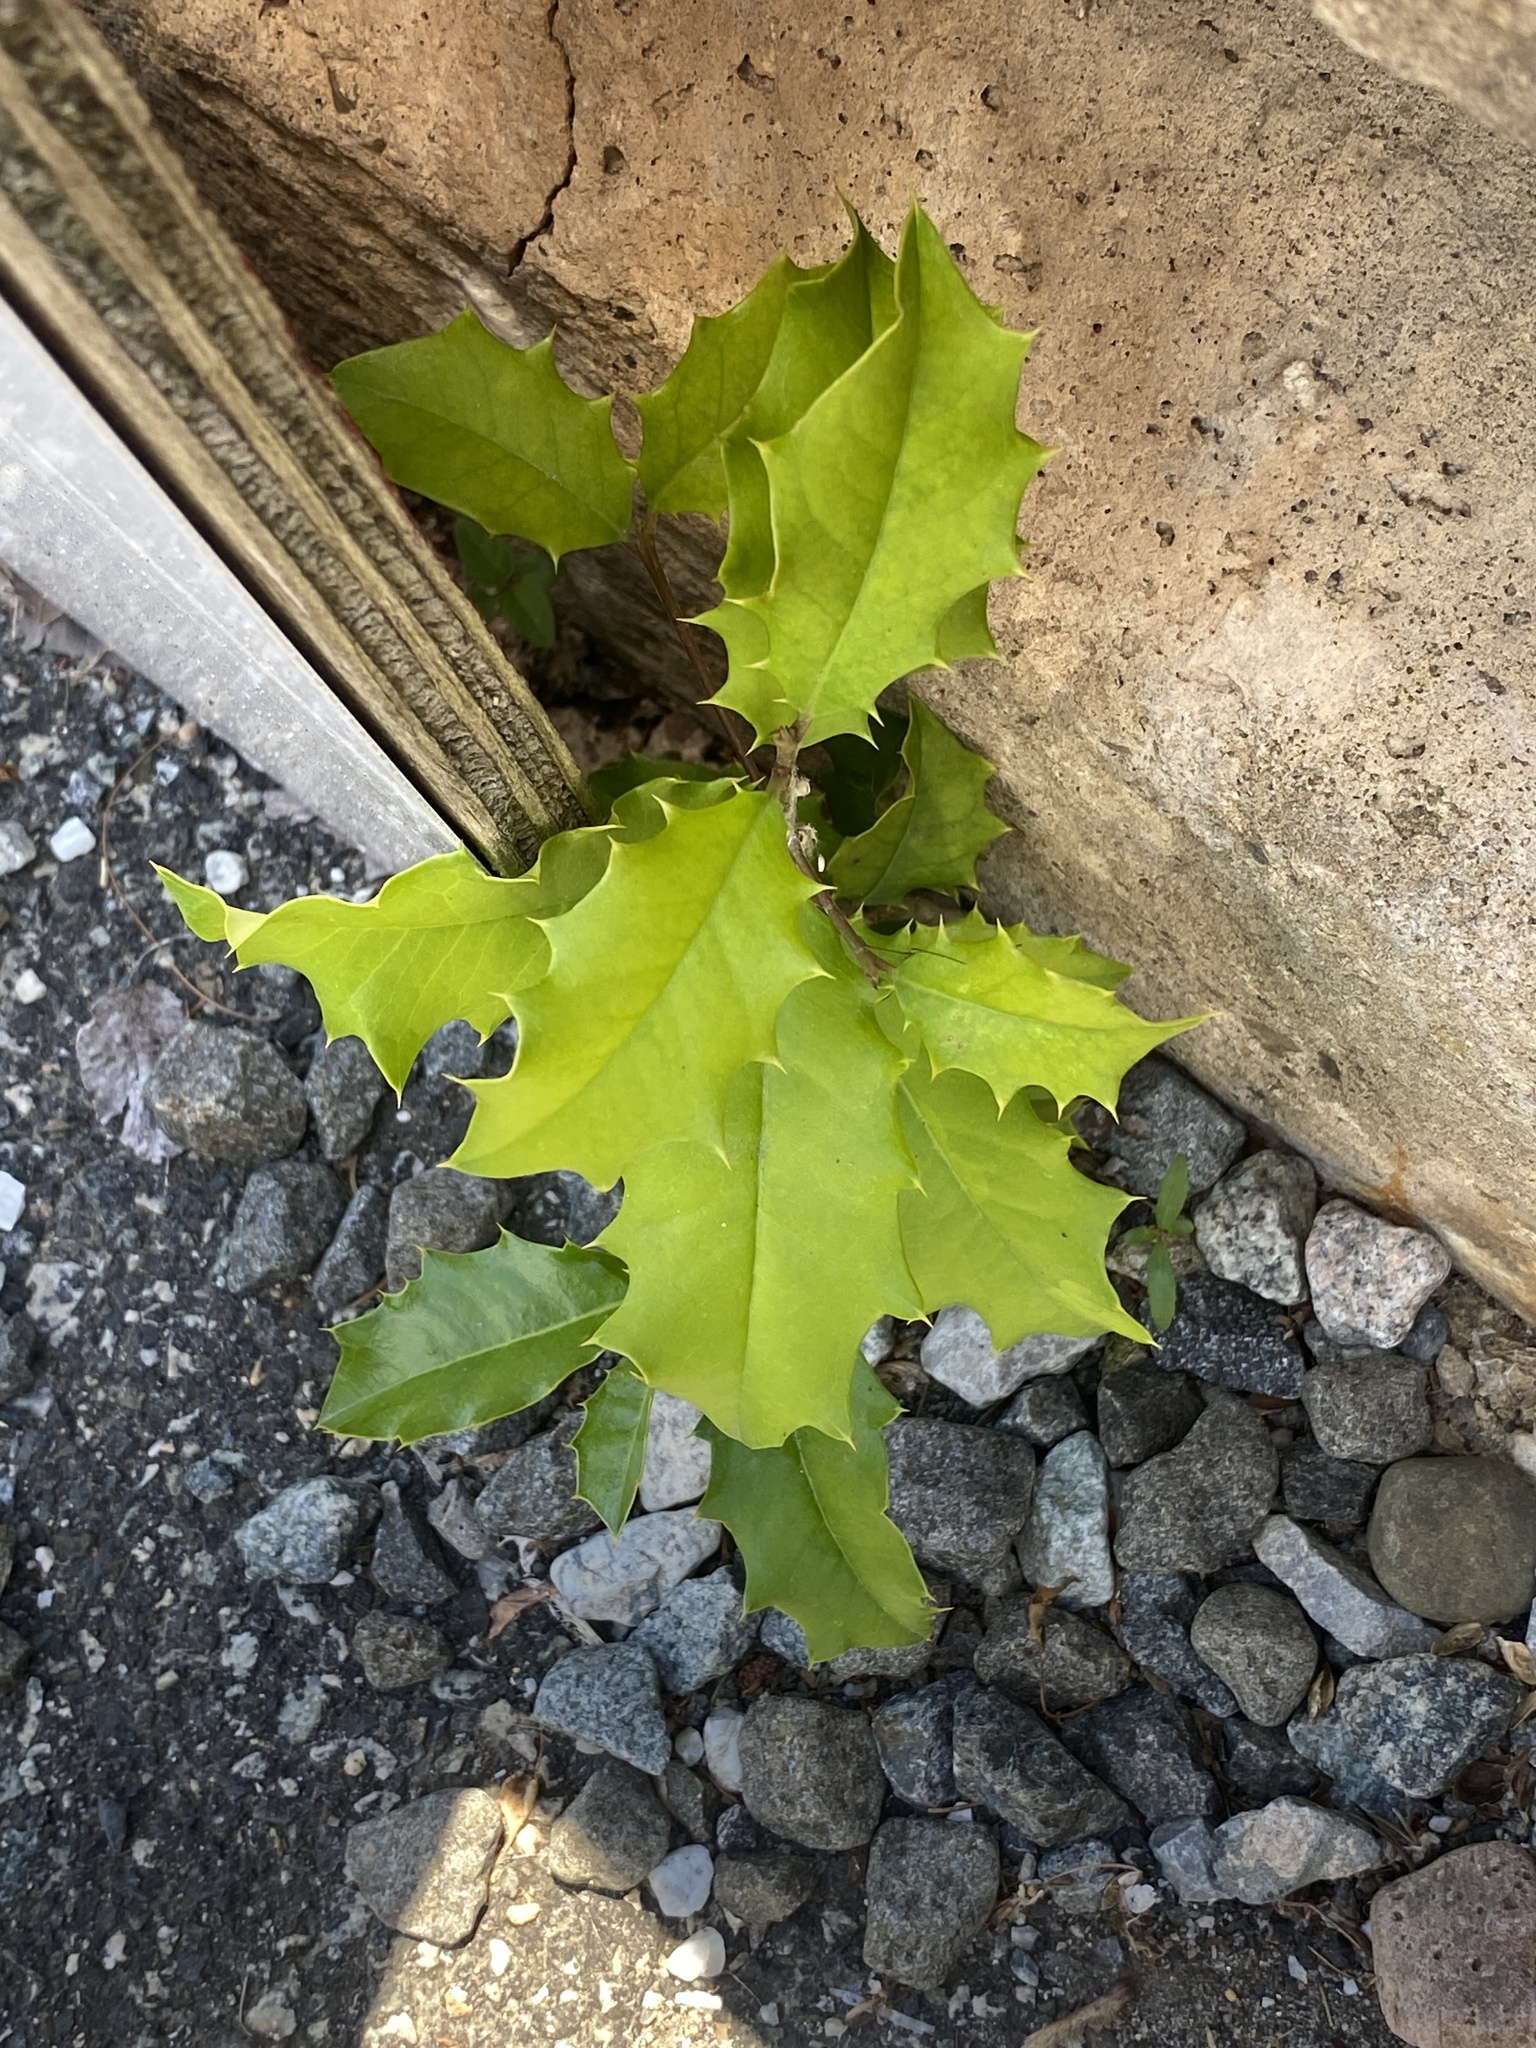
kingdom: Plantae
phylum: Tracheophyta
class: Magnoliopsida
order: Aquifoliales
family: Aquifoliaceae
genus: Ilex
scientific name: Ilex opaca
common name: American holly
